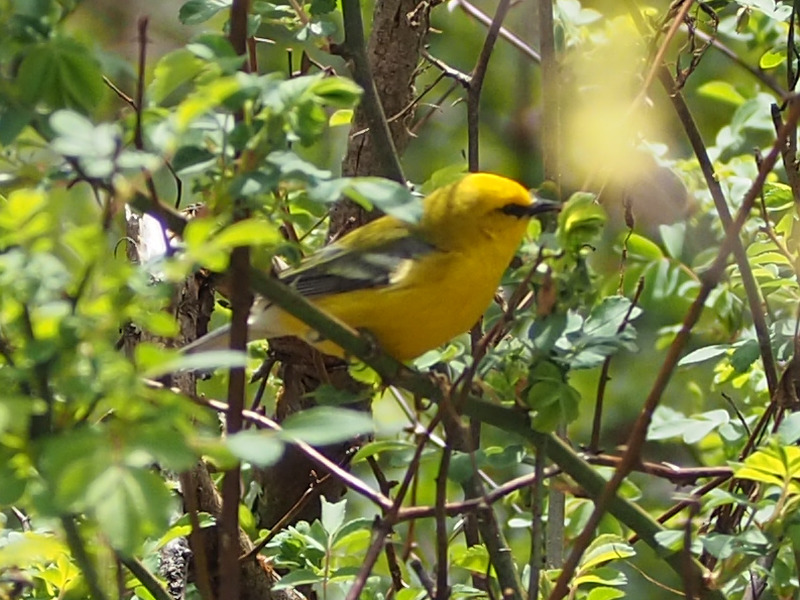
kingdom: Animalia
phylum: Chordata
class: Aves
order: Passeriformes
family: Parulidae
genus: Vermivora
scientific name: Vermivora cyanoptera
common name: Blue-winged warbler
